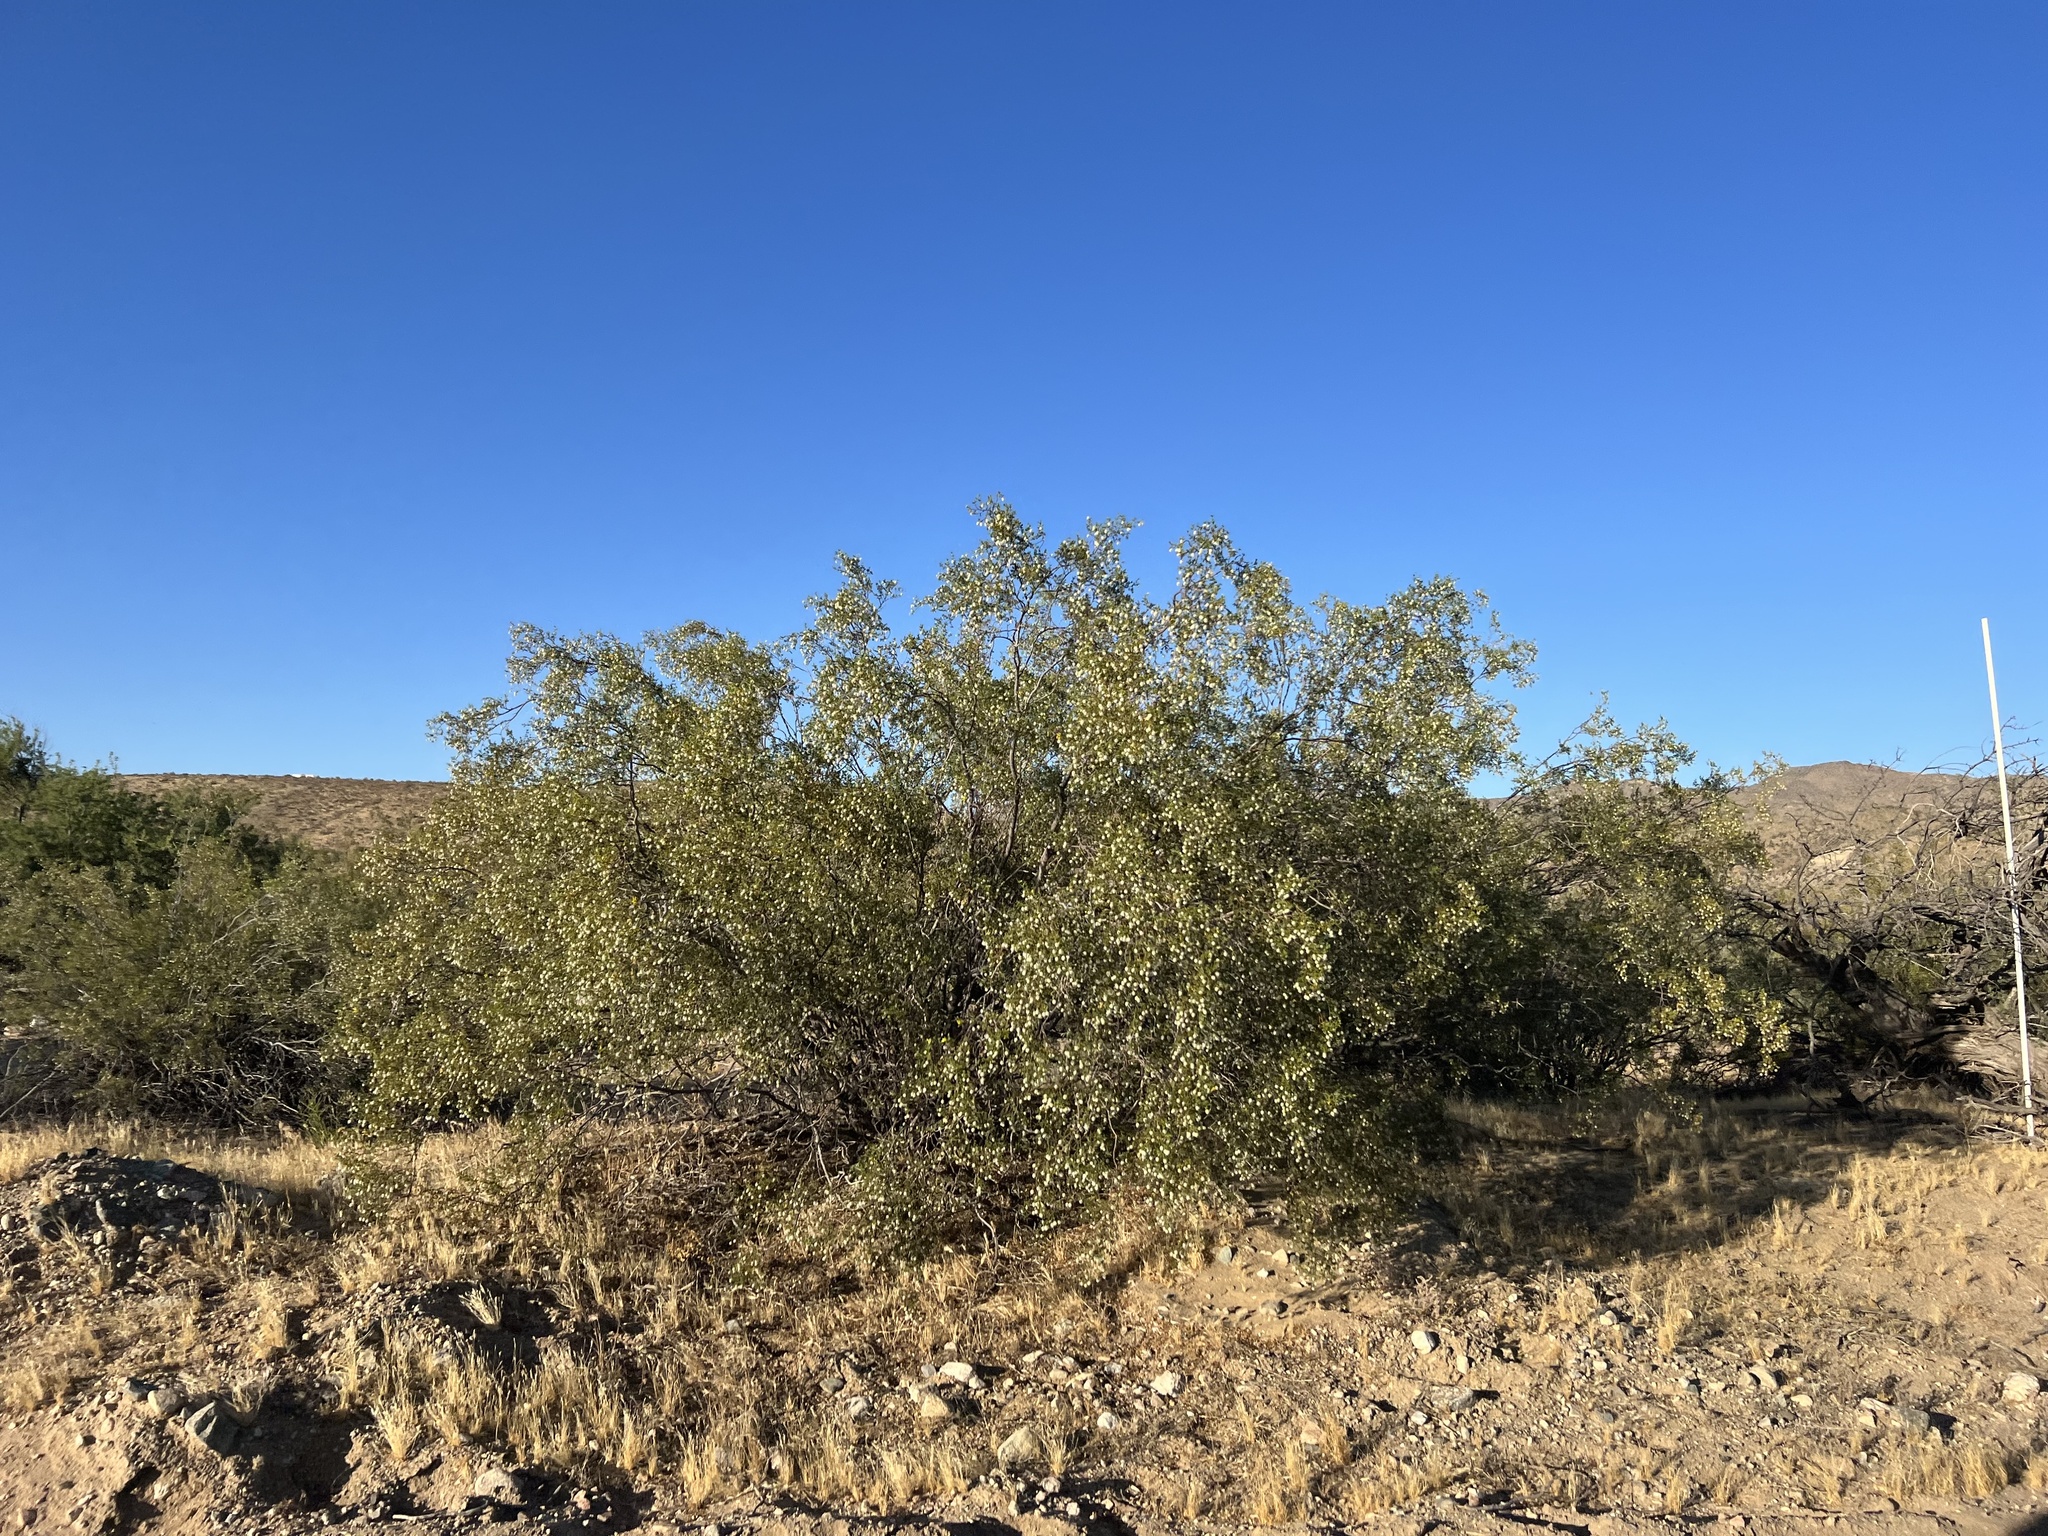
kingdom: Plantae
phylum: Tracheophyta
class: Magnoliopsida
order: Zygophyllales
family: Zygophyllaceae
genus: Larrea
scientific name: Larrea tridentata
